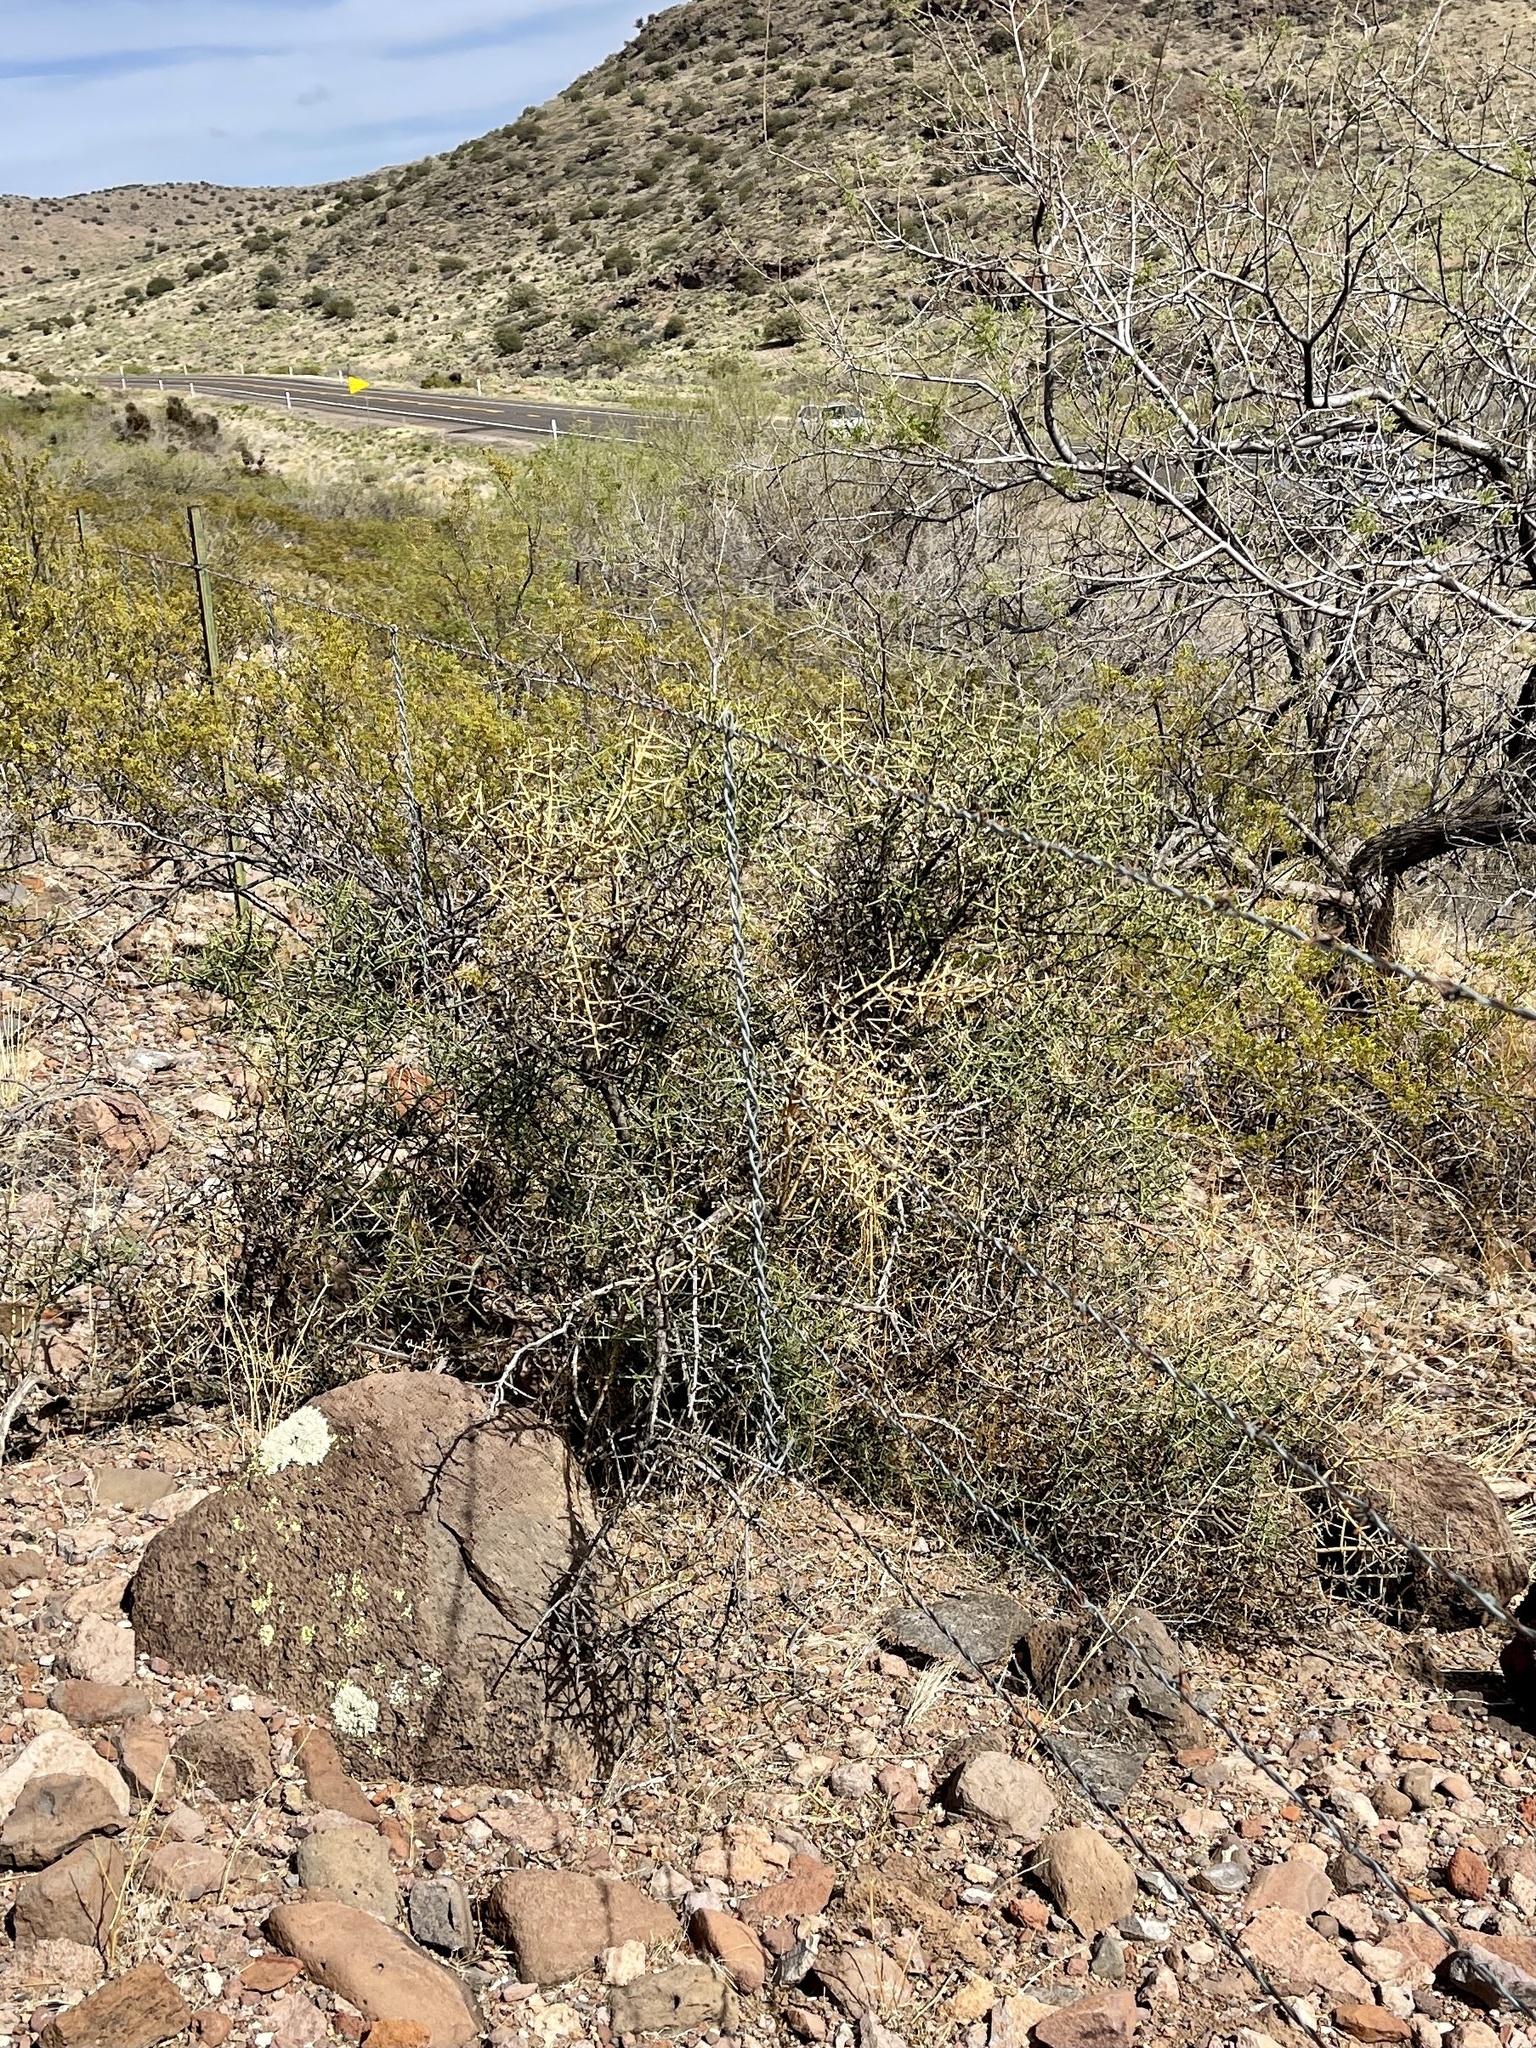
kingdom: Plantae
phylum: Tracheophyta
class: Magnoliopsida
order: Brassicales
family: Koeberliniaceae
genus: Koeberlinia
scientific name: Koeberlinia spinosa
